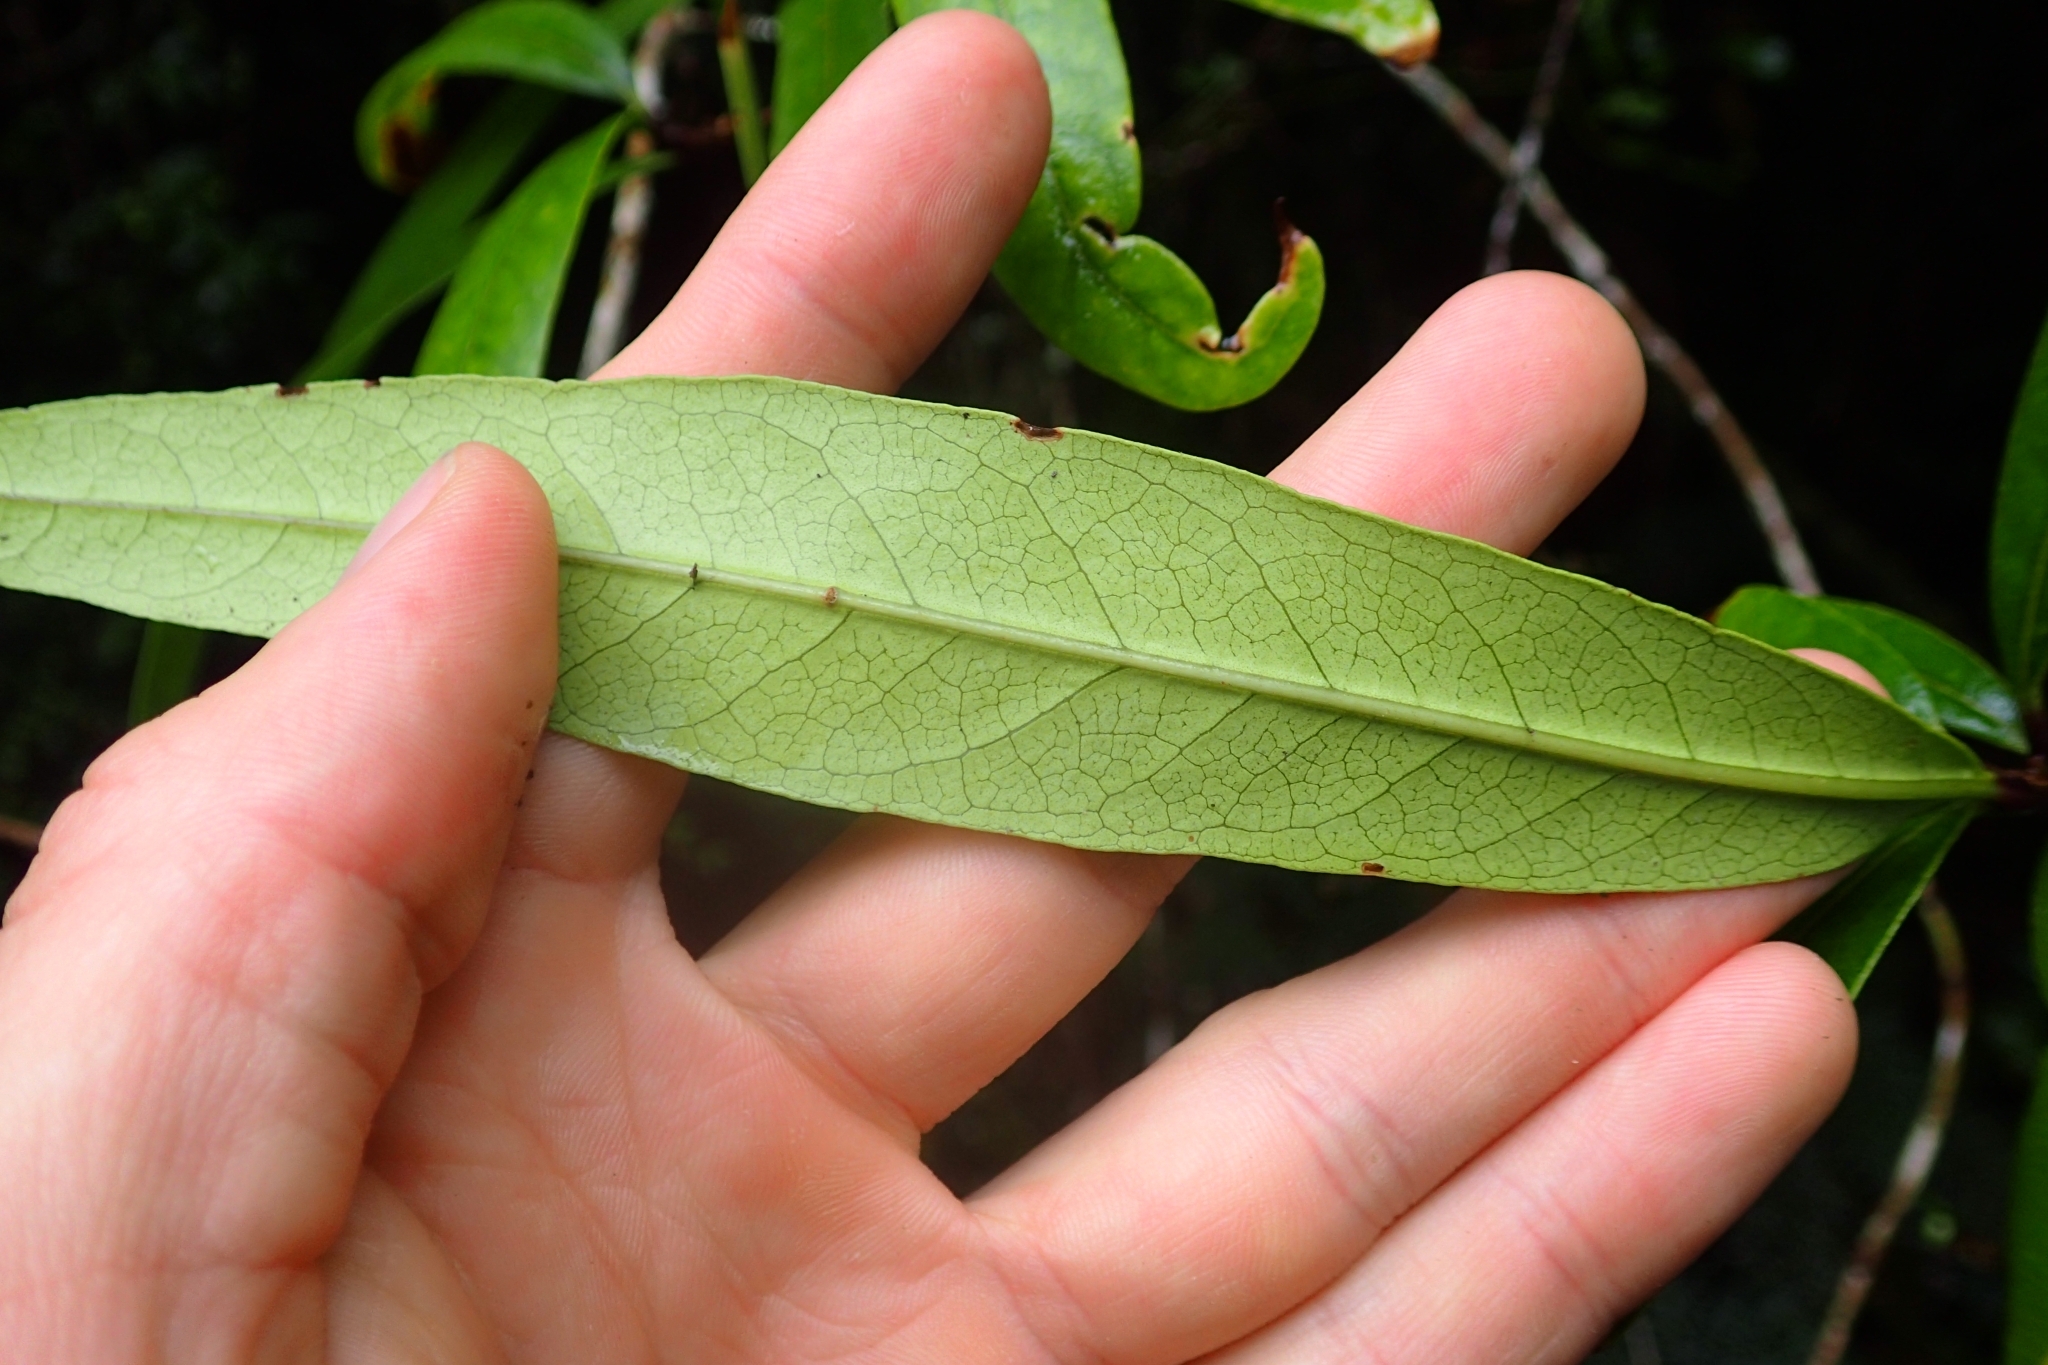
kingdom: Plantae
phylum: Tracheophyta
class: Magnoliopsida
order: Lamiales
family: Oleaceae
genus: Nestegis
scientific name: Nestegis cunninghamii
